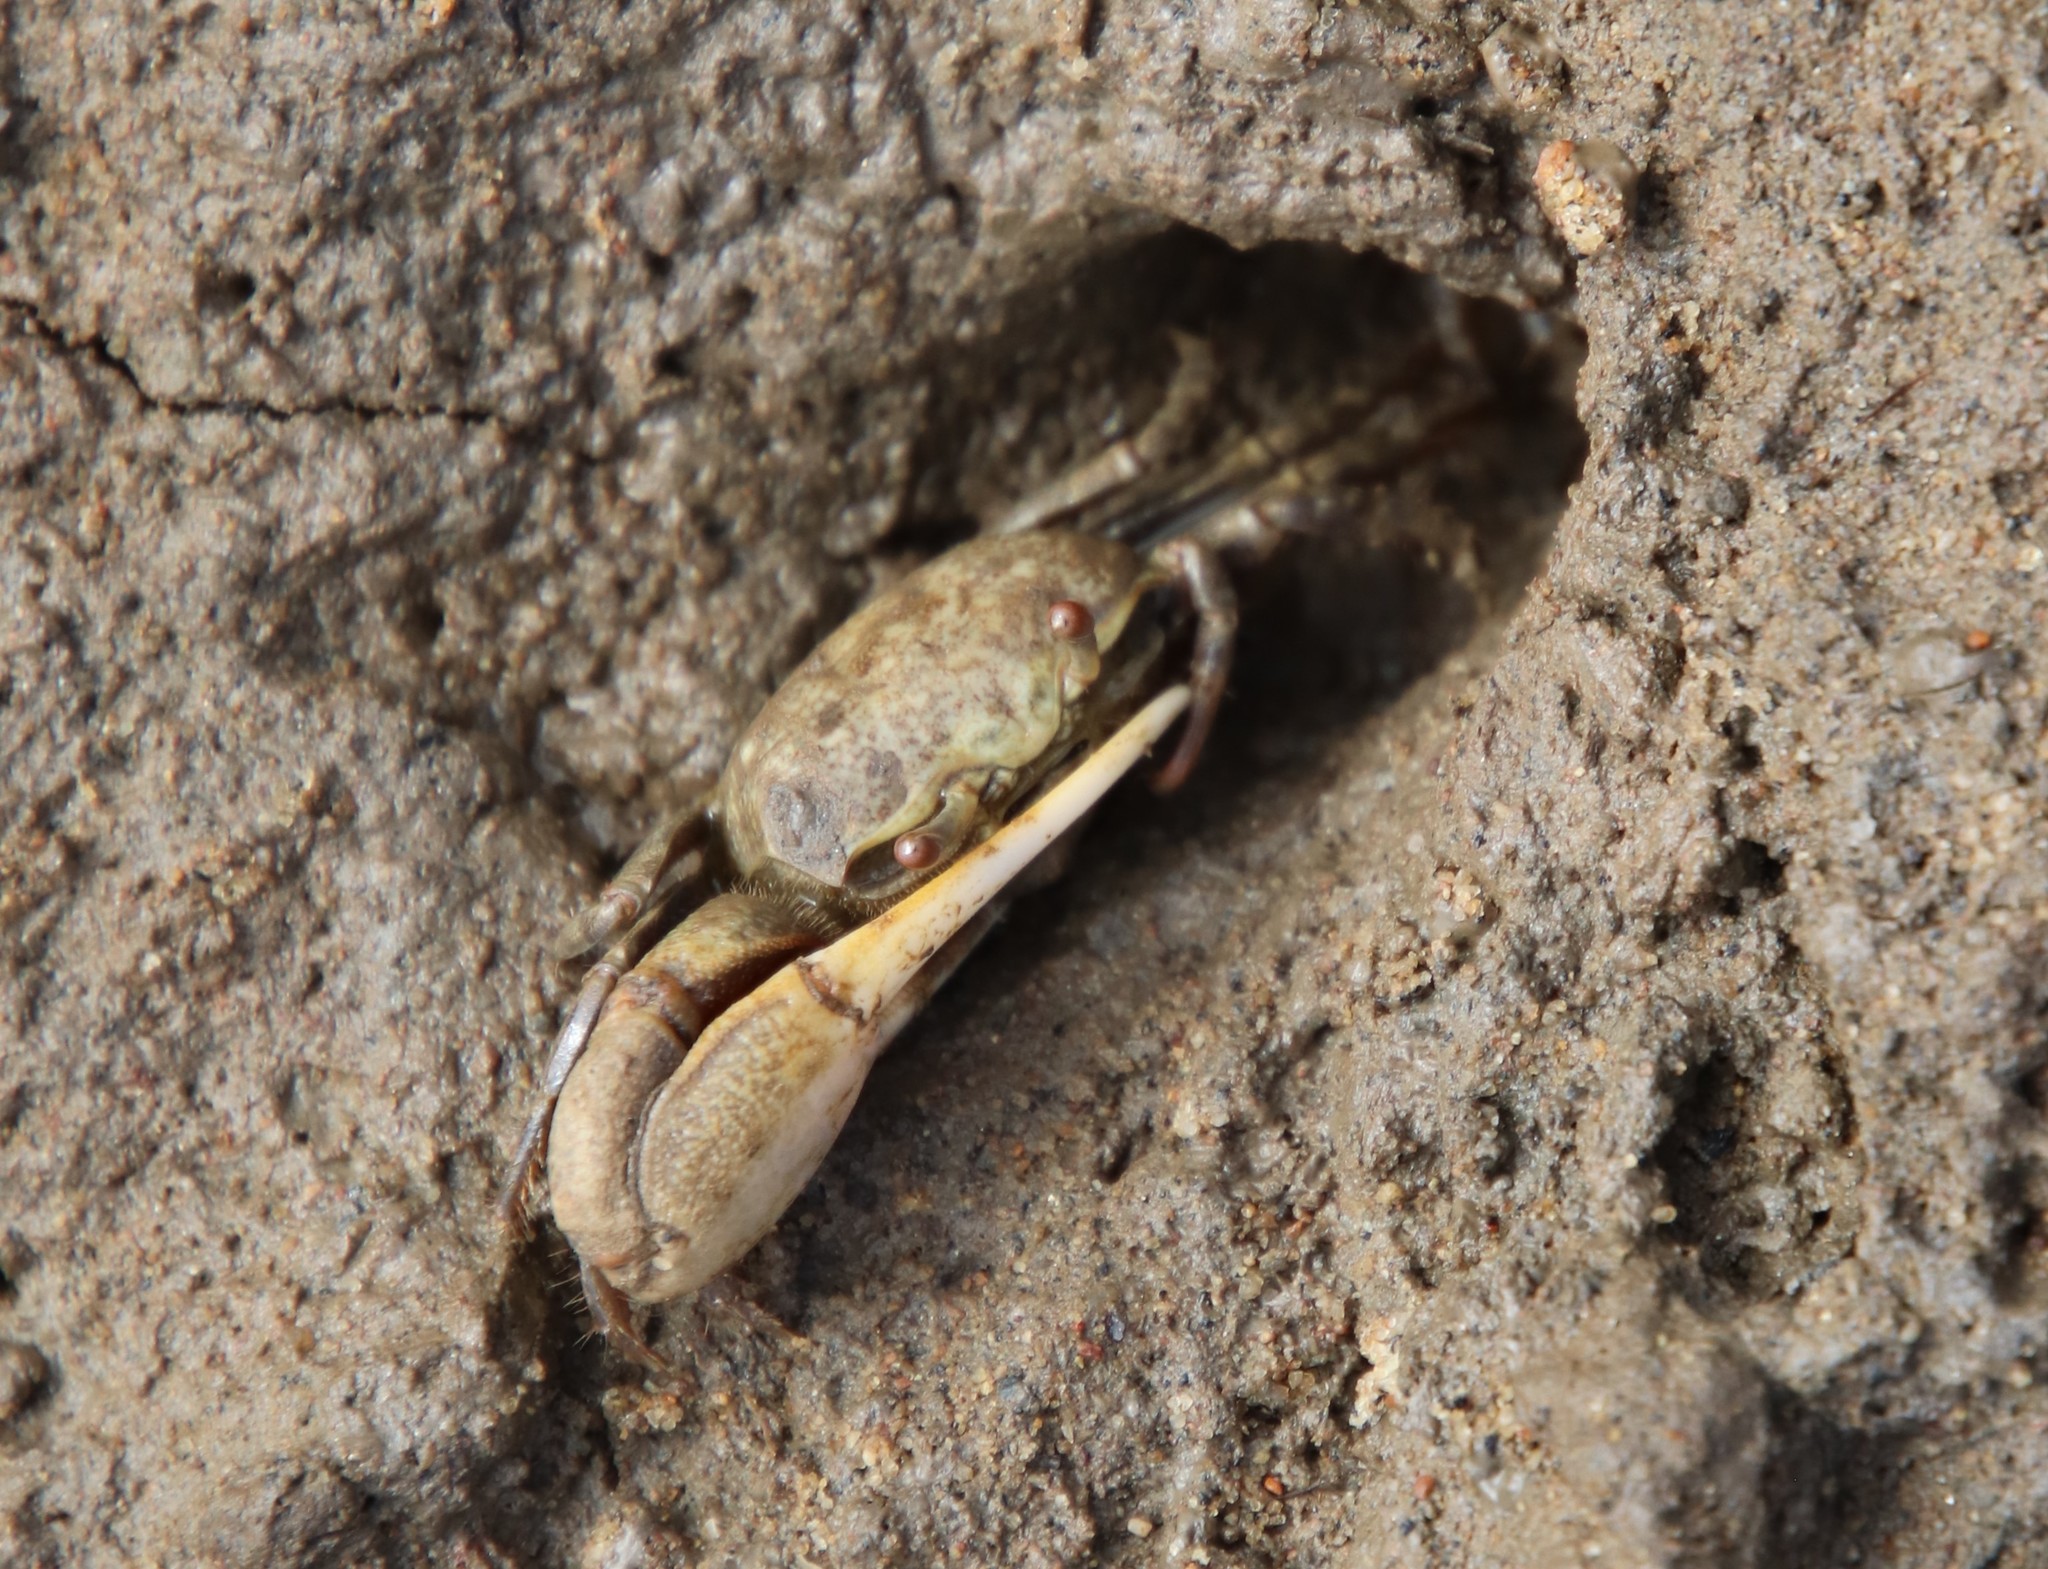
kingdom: Animalia
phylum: Arthropoda
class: Malacostraca
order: Decapoda
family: Ocypodidae
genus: Leptuca
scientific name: Leptuca crenulata
